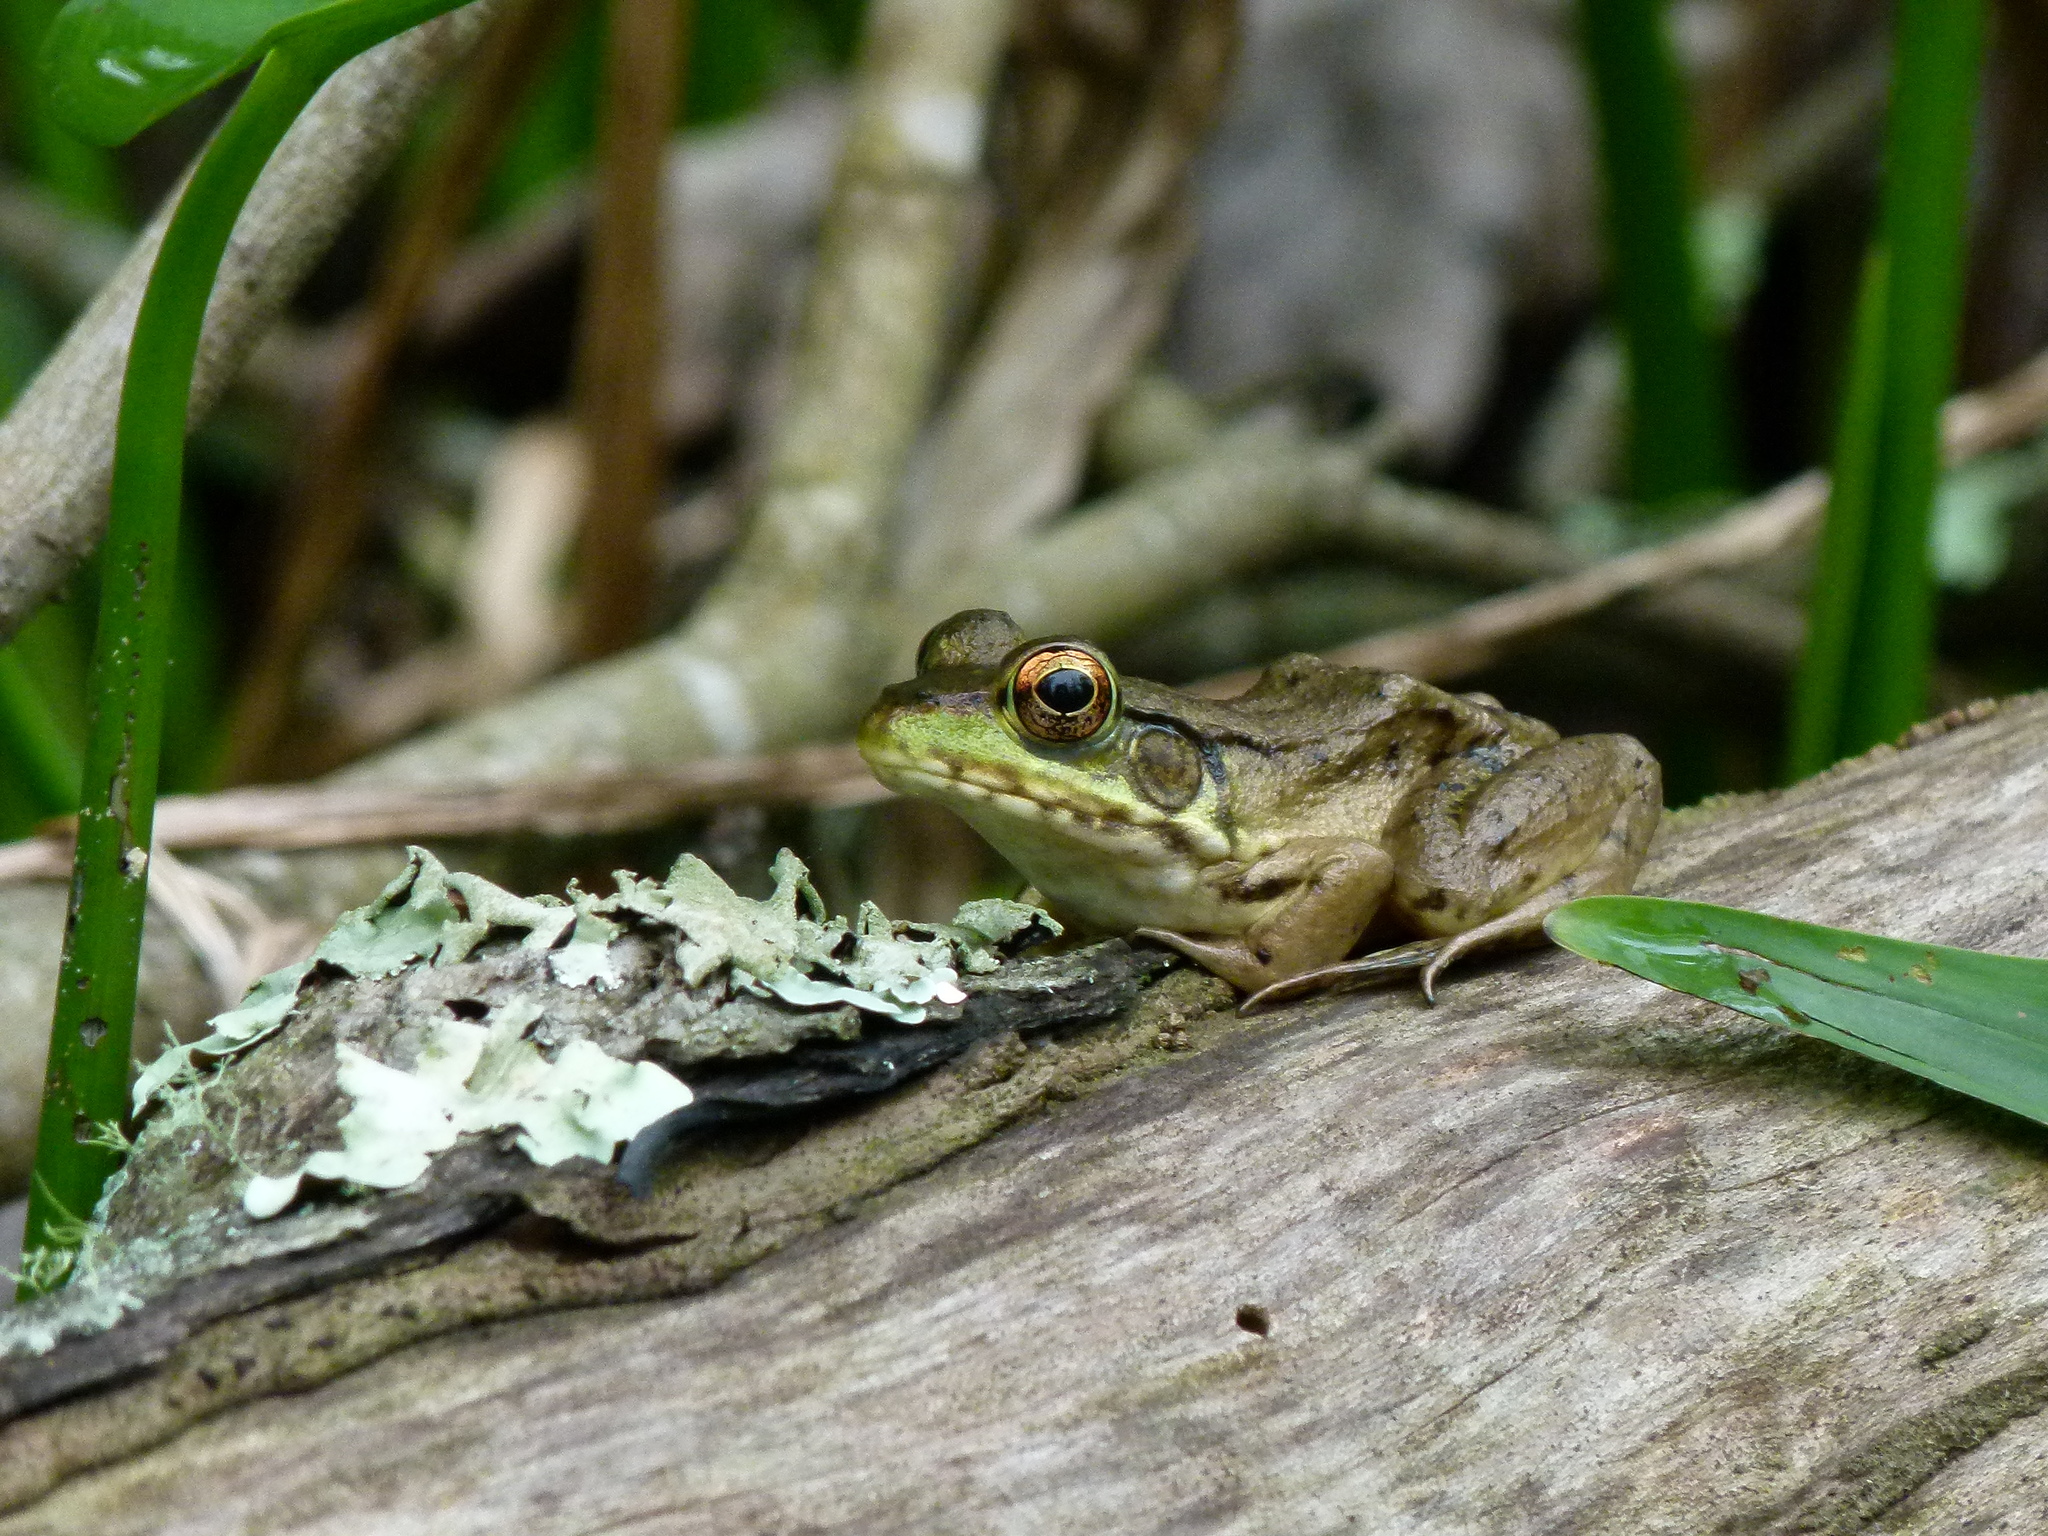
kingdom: Animalia
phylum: Chordata
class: Amphibia
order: Anura
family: Ranidae
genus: Lithobates
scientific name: Lithobates clamitans
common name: Green frog
